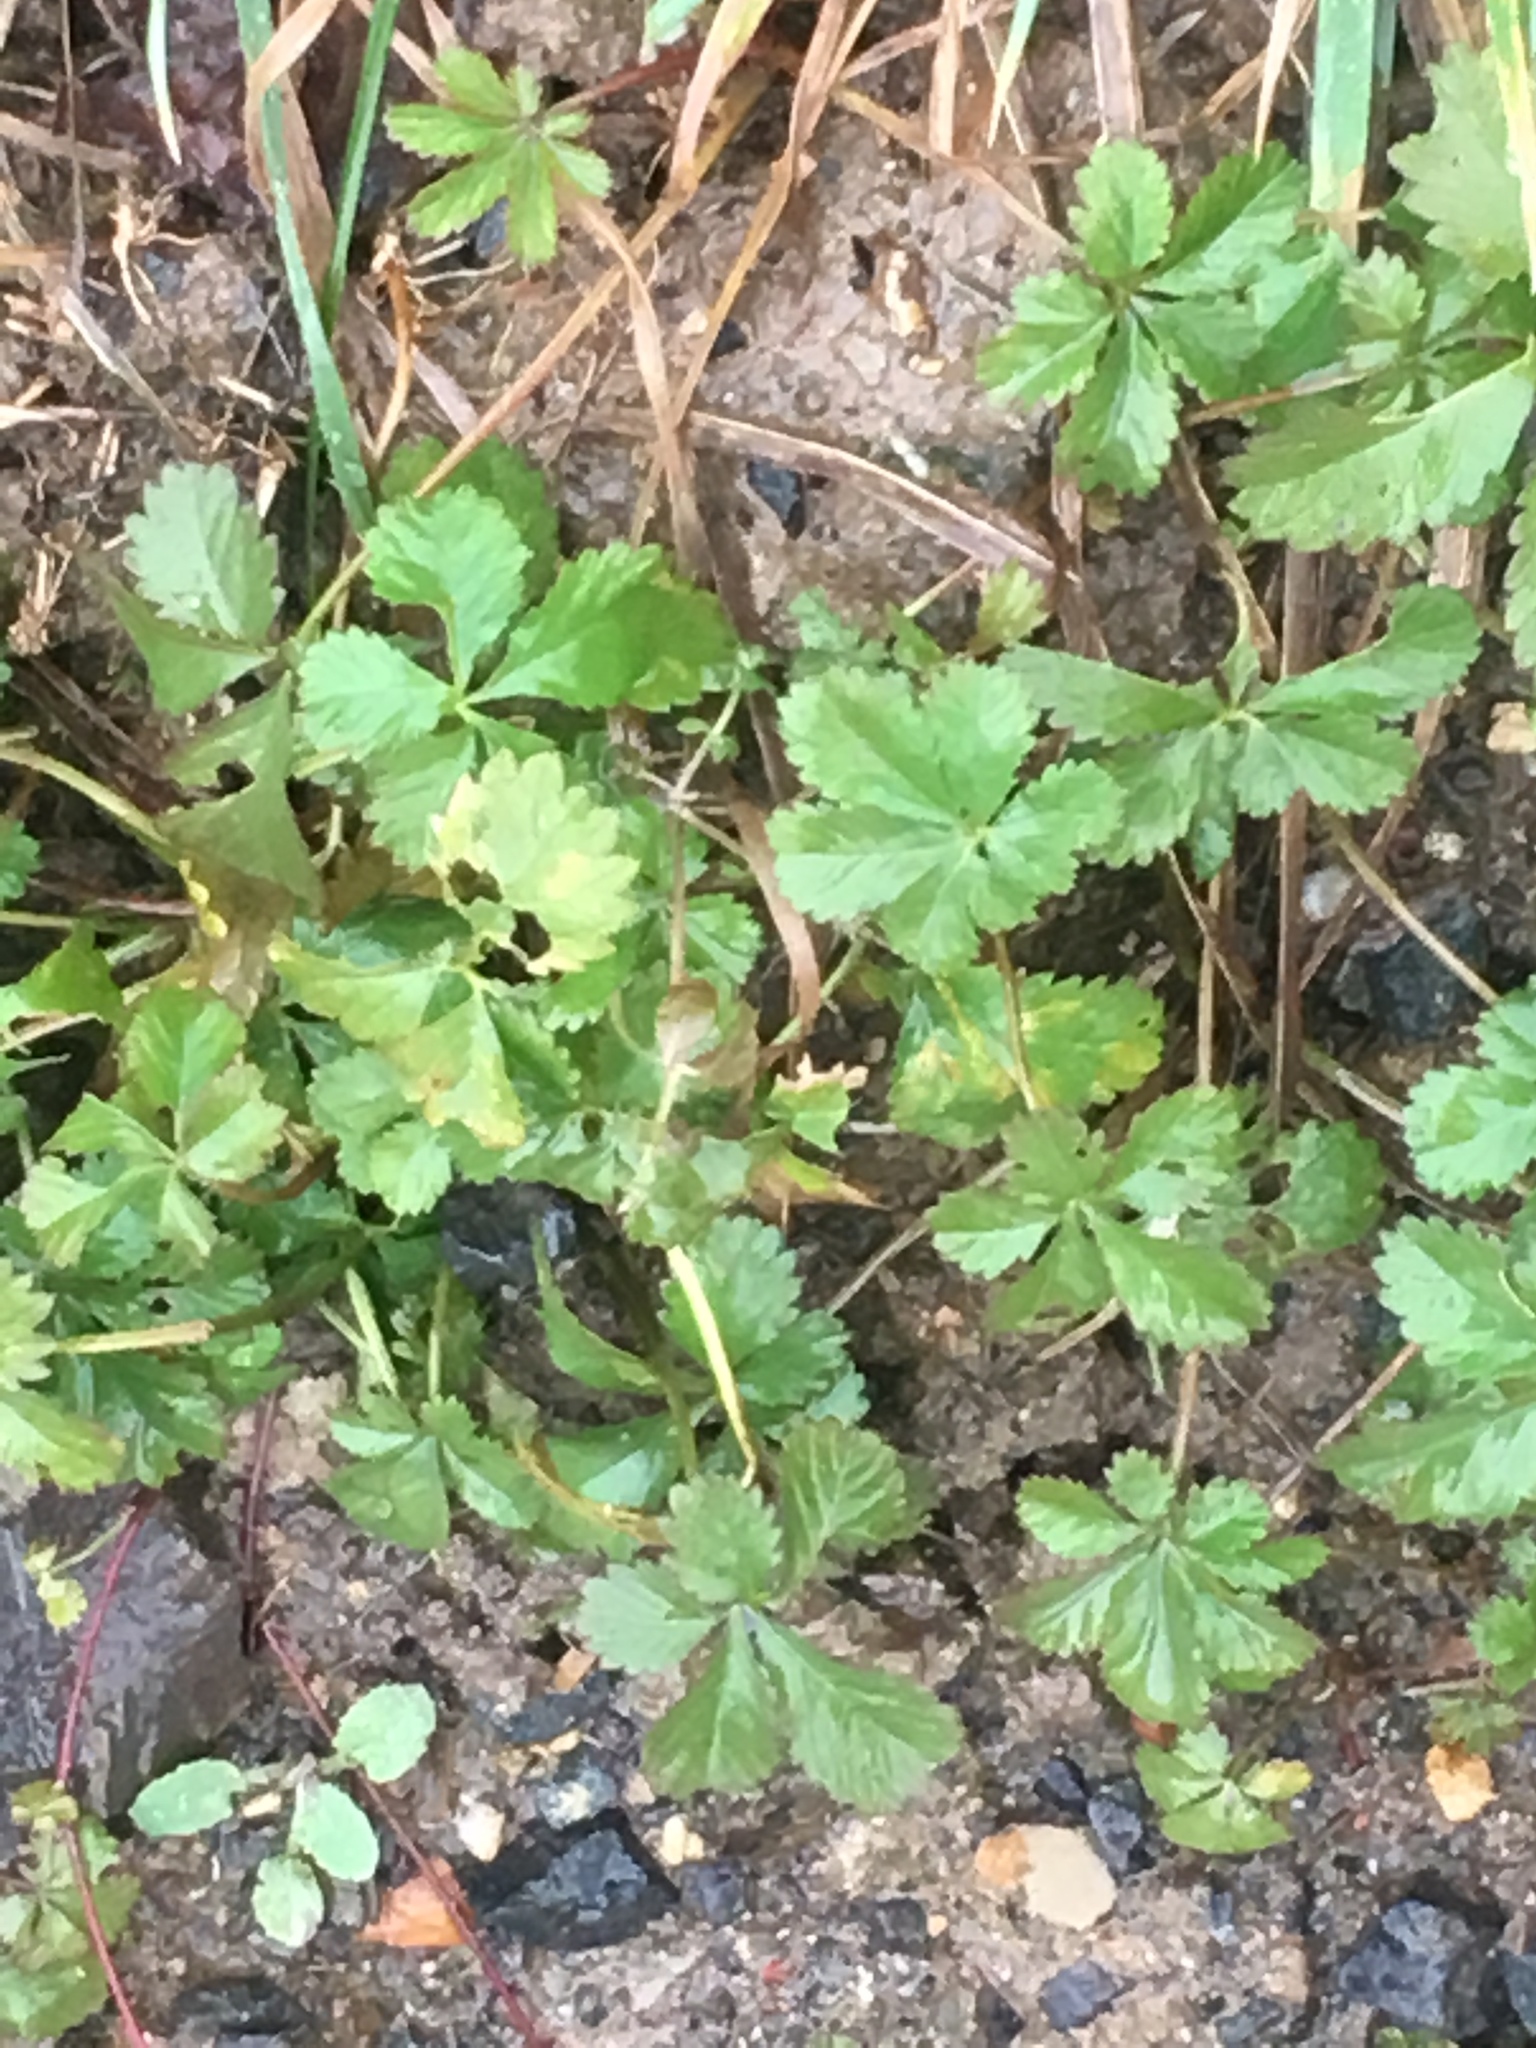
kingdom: Plantae
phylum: Tracheophyta
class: Magnoliopsida
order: Rosales
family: Rosaceae
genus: Potentilla
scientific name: Potentilla reptans
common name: Creeping cinquefoil
